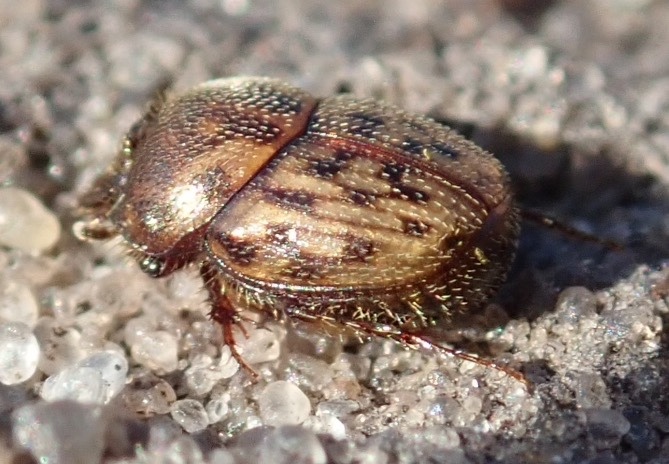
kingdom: Animalia
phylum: Arthropoda
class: Insecta
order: Coleoptera
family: Scarabaeidae
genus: Onthophagus
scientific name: Onthophagus variegatus
